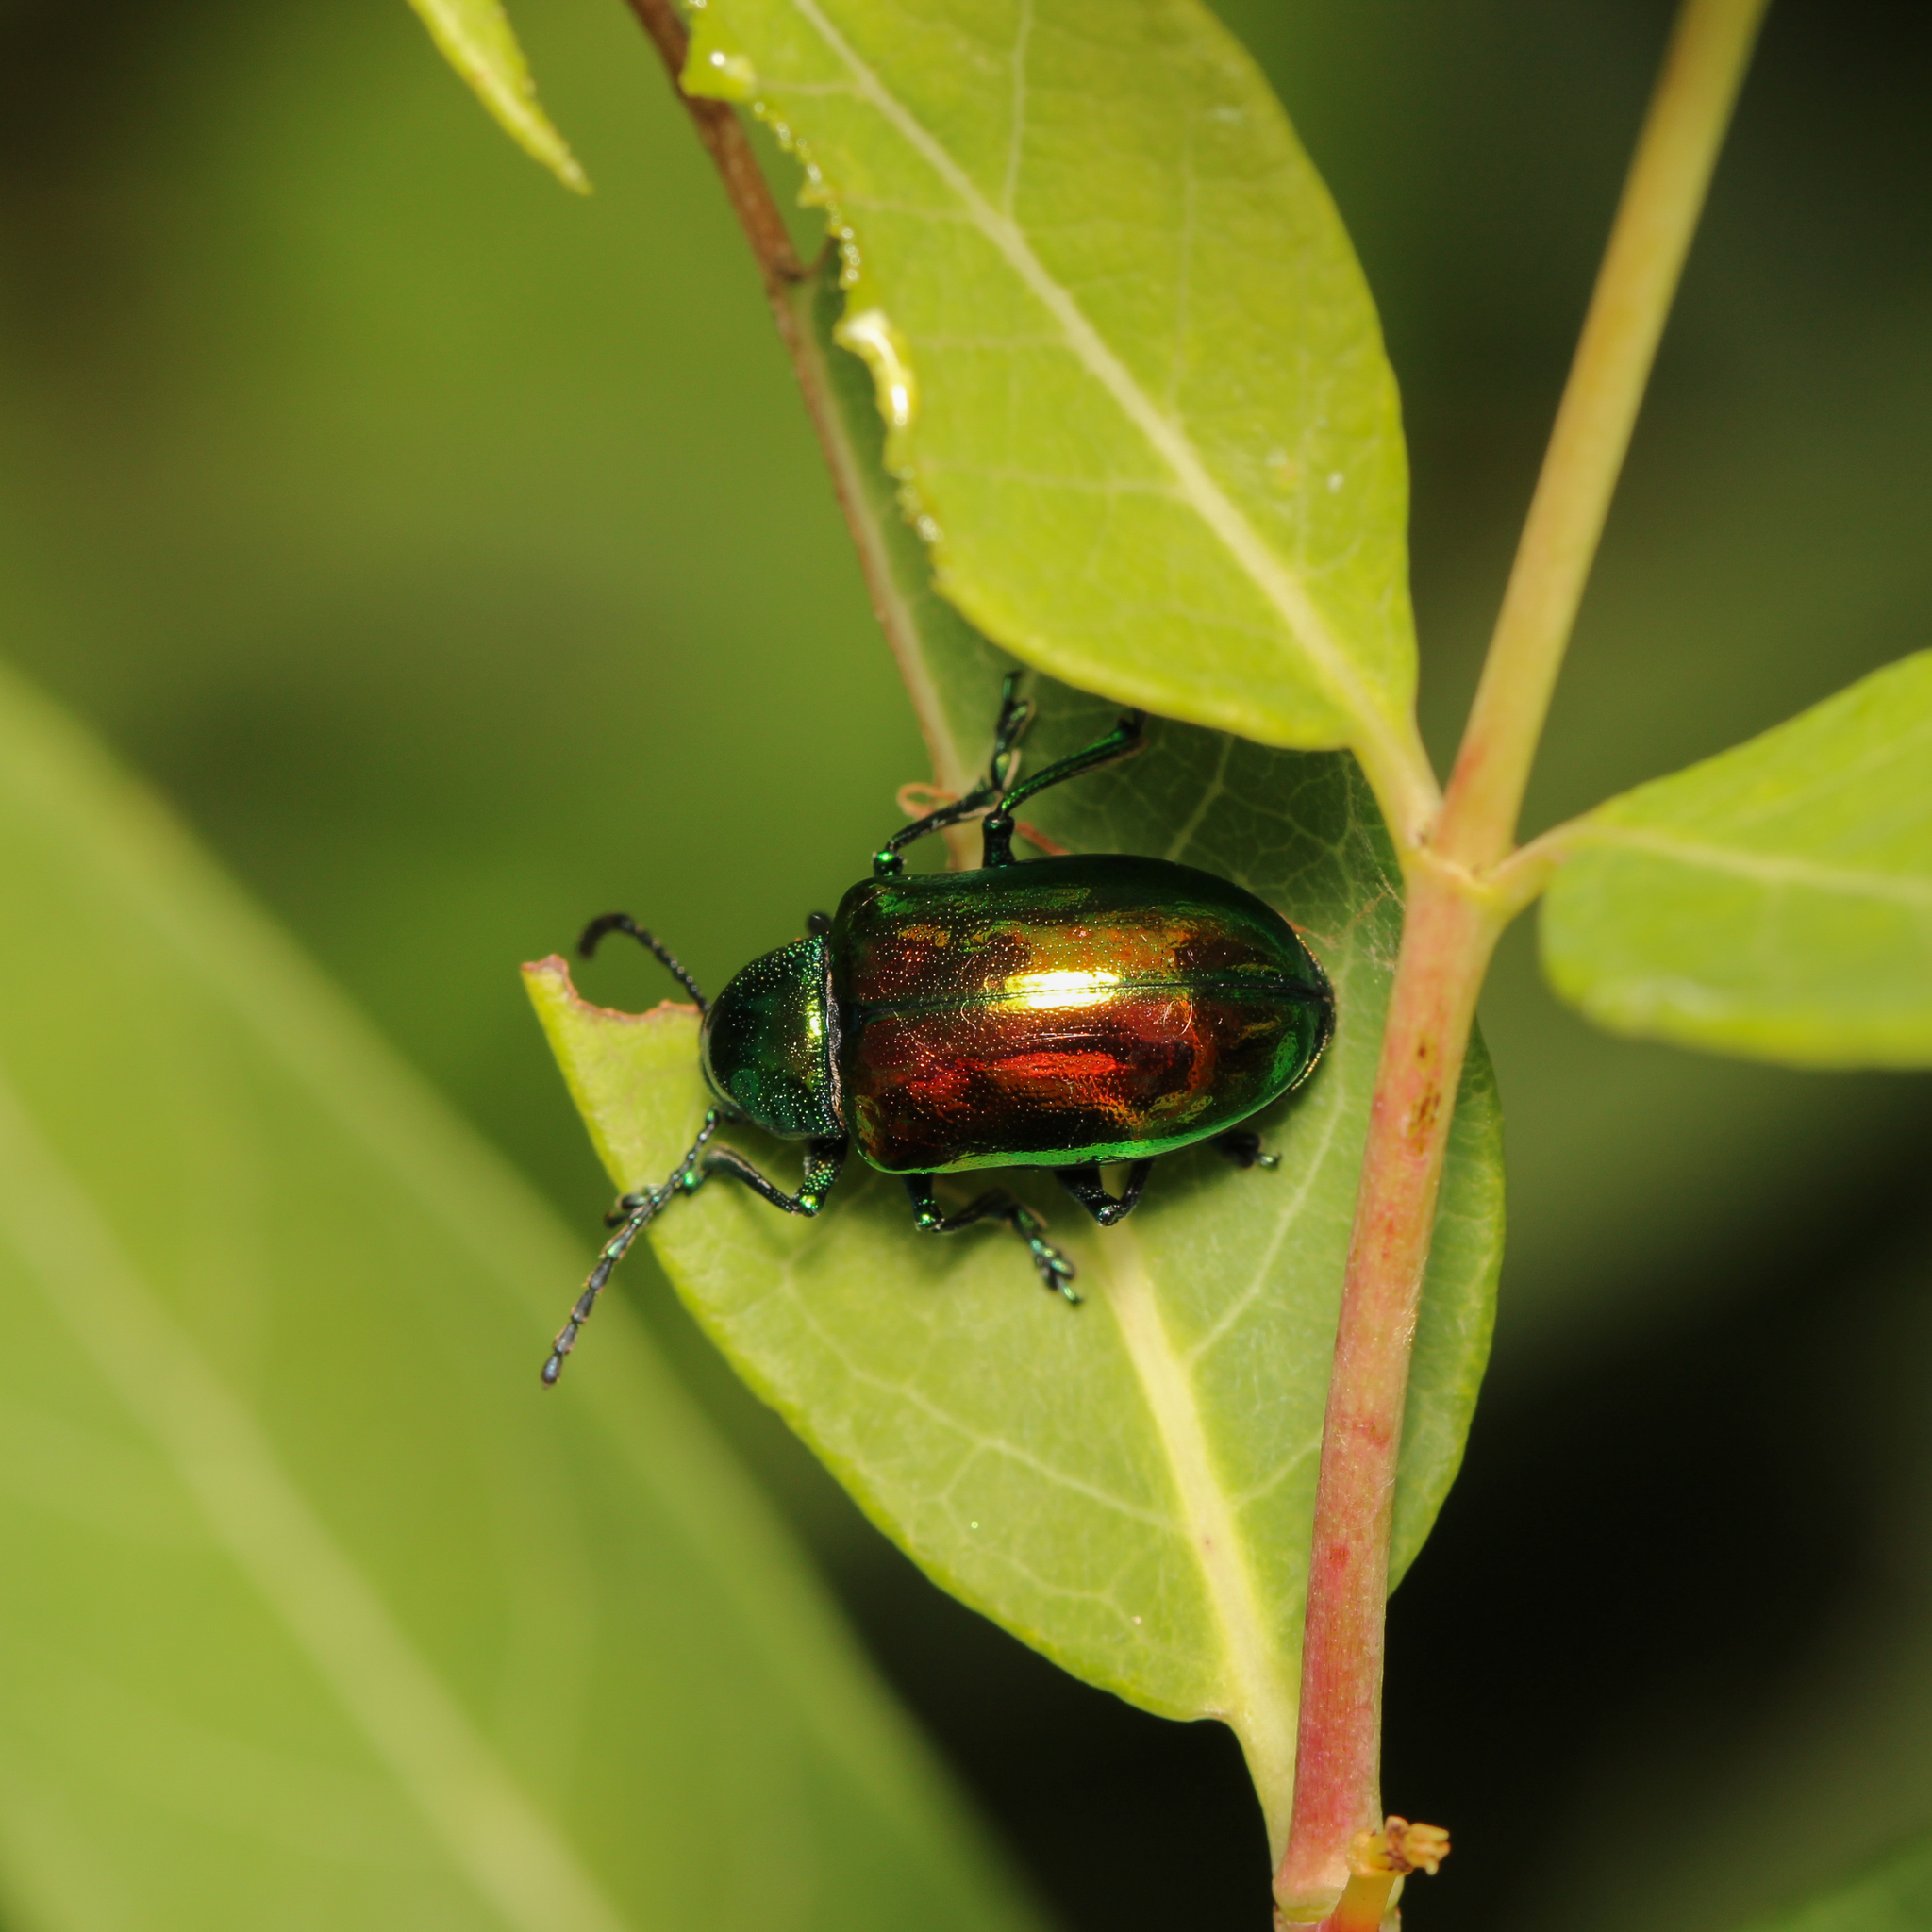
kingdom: Animalia
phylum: Arthropoda
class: Insecta
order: Coleoptera
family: Chrysomelidae
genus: Chrysochus
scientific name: Chrysochus auratus
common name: Dogbane leaf beetle
